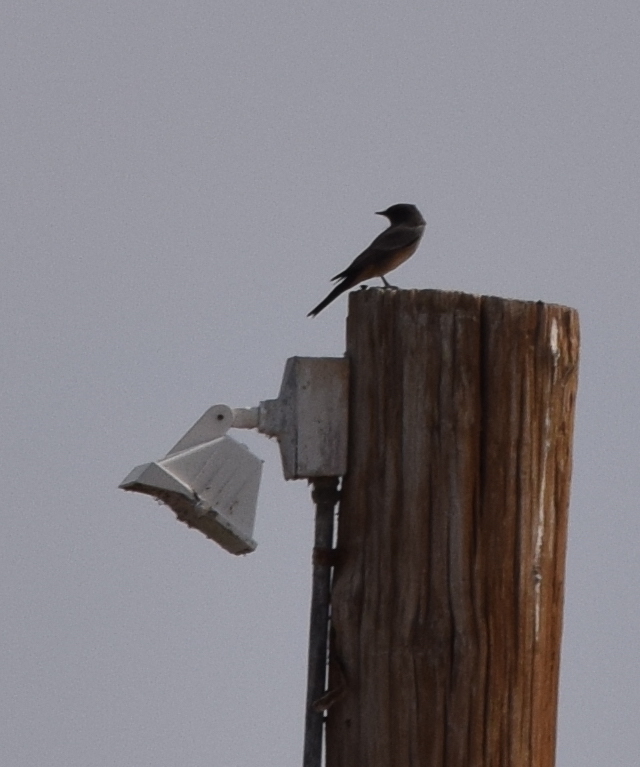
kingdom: Animalia
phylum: Chordata
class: Aves
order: Passeriformes
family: Tyrannidae
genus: Sayornis
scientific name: Sayornis saya
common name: Say's phoebe
